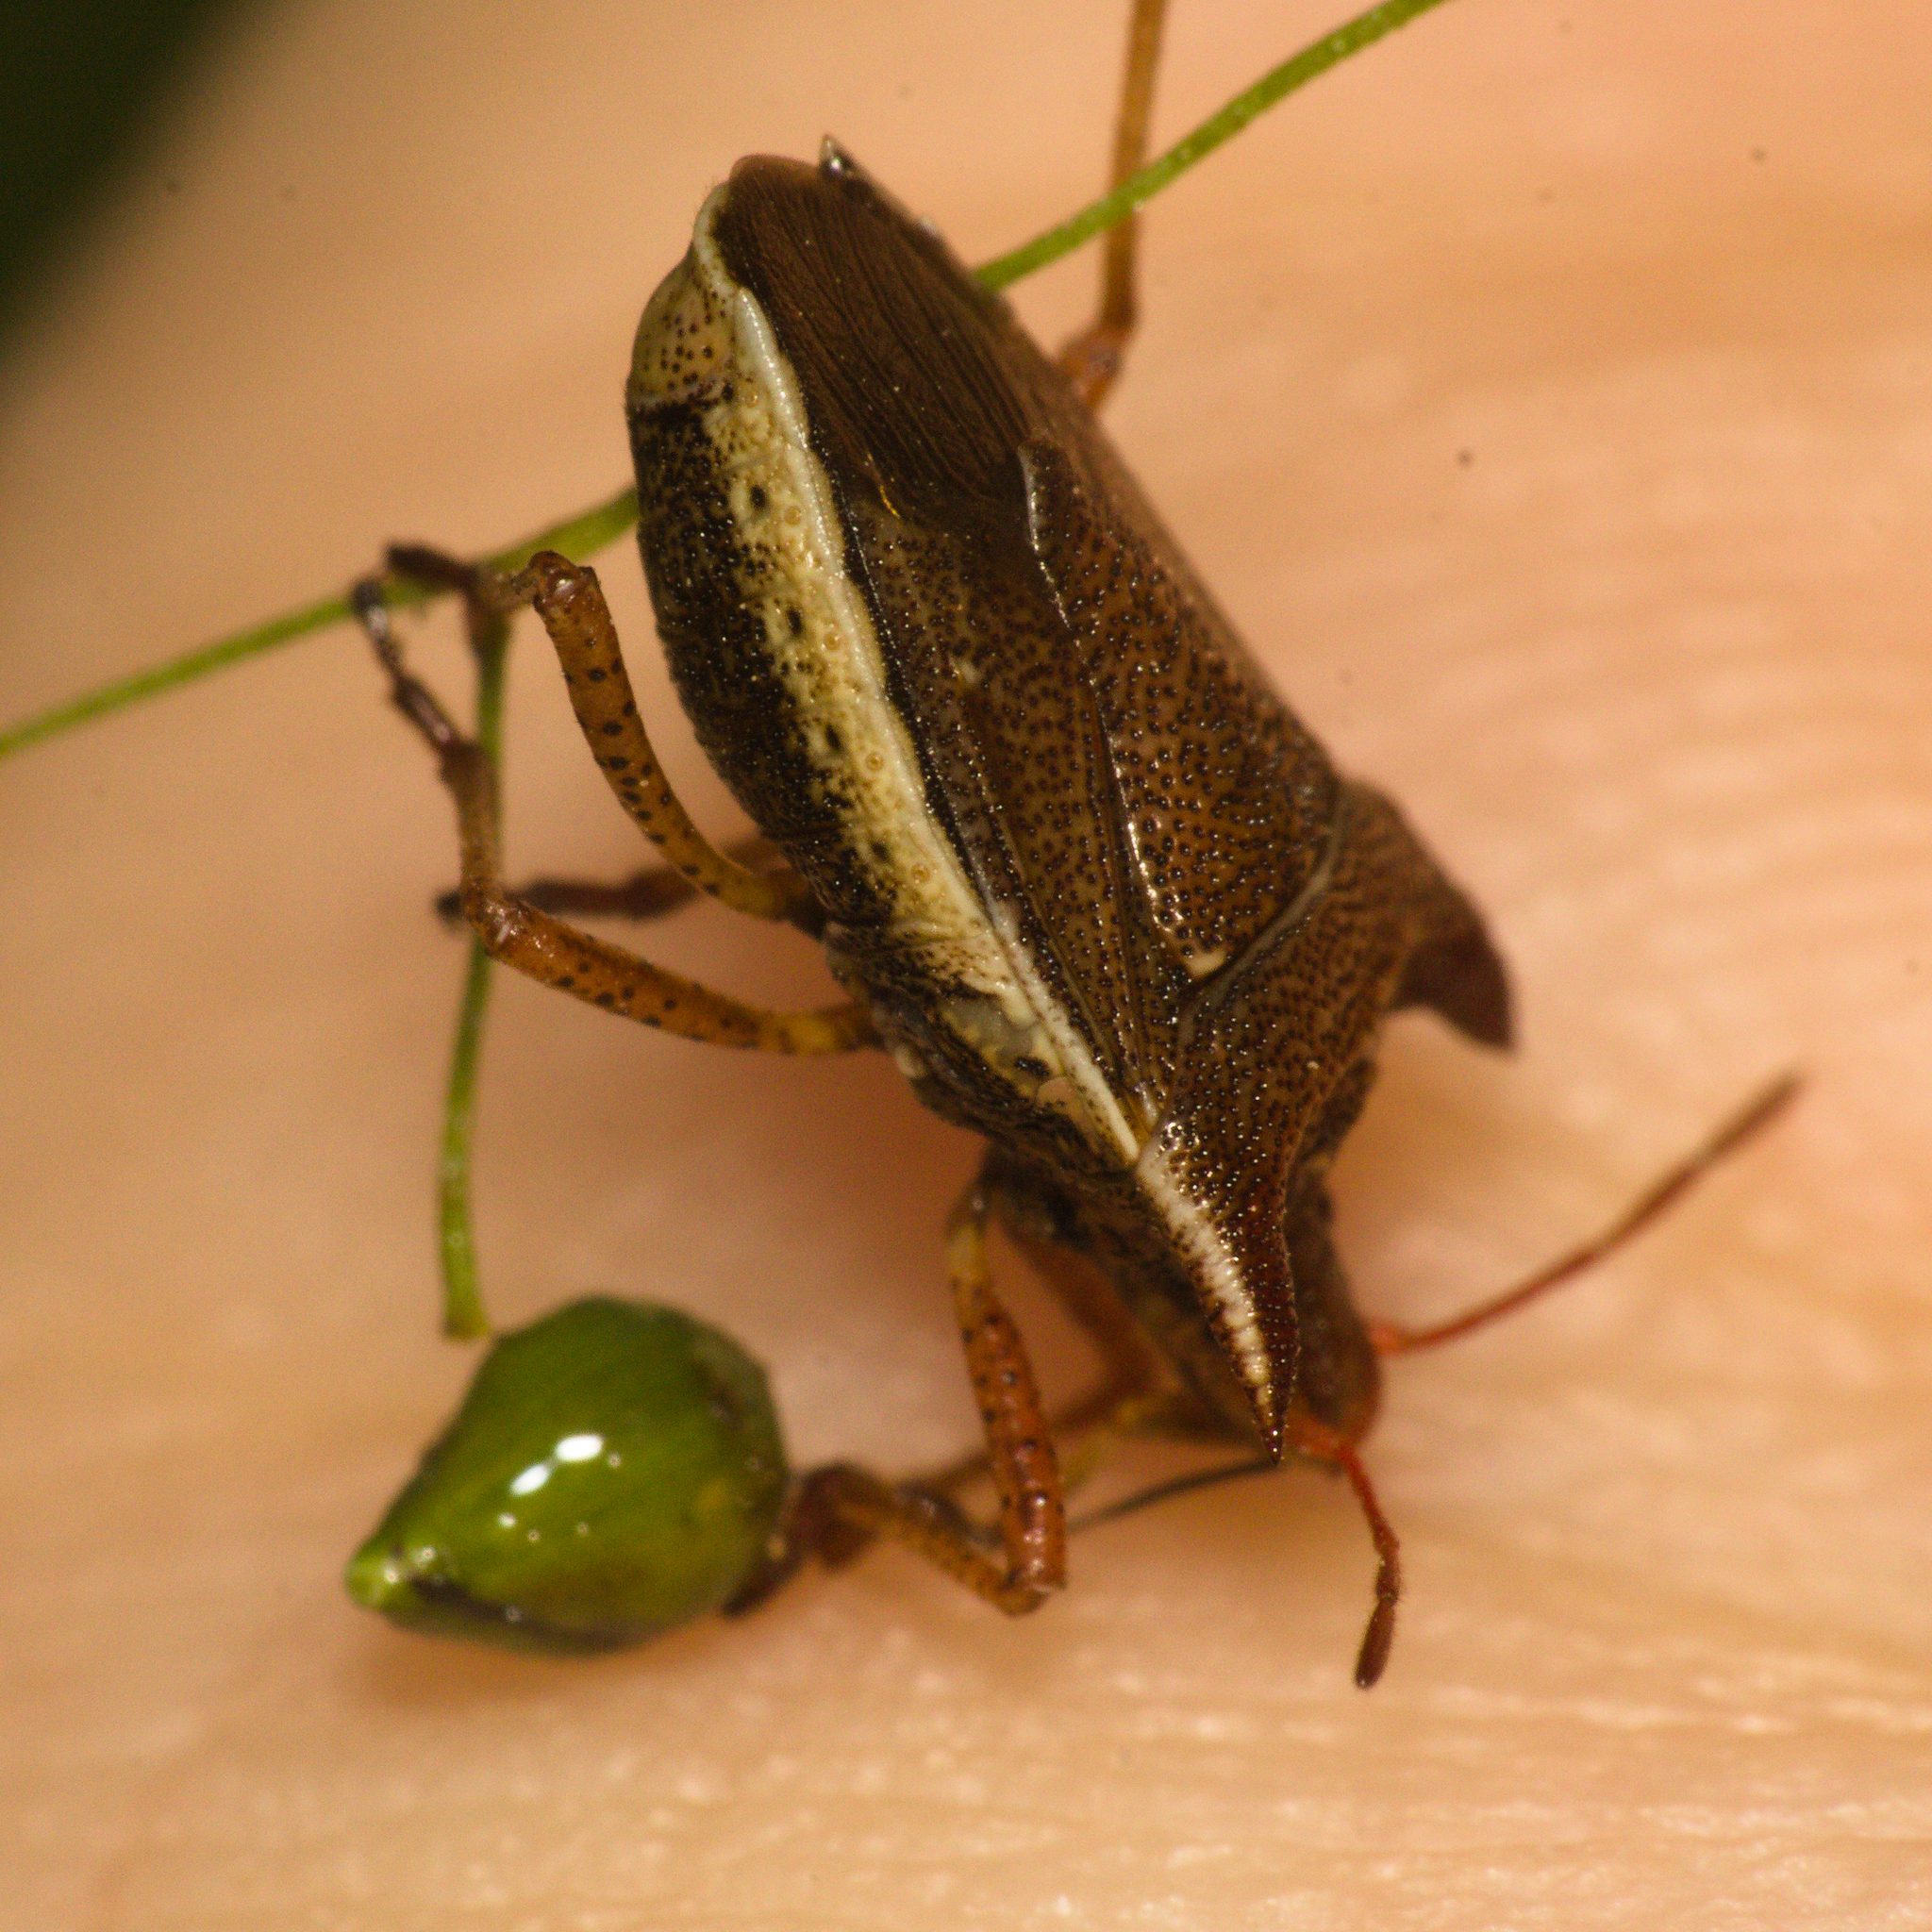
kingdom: Animalia
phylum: Arthropoda
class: Insecta
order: Hemiptera
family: Pentatomidae
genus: Caonabo
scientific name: Caonabo pseudoscylax
